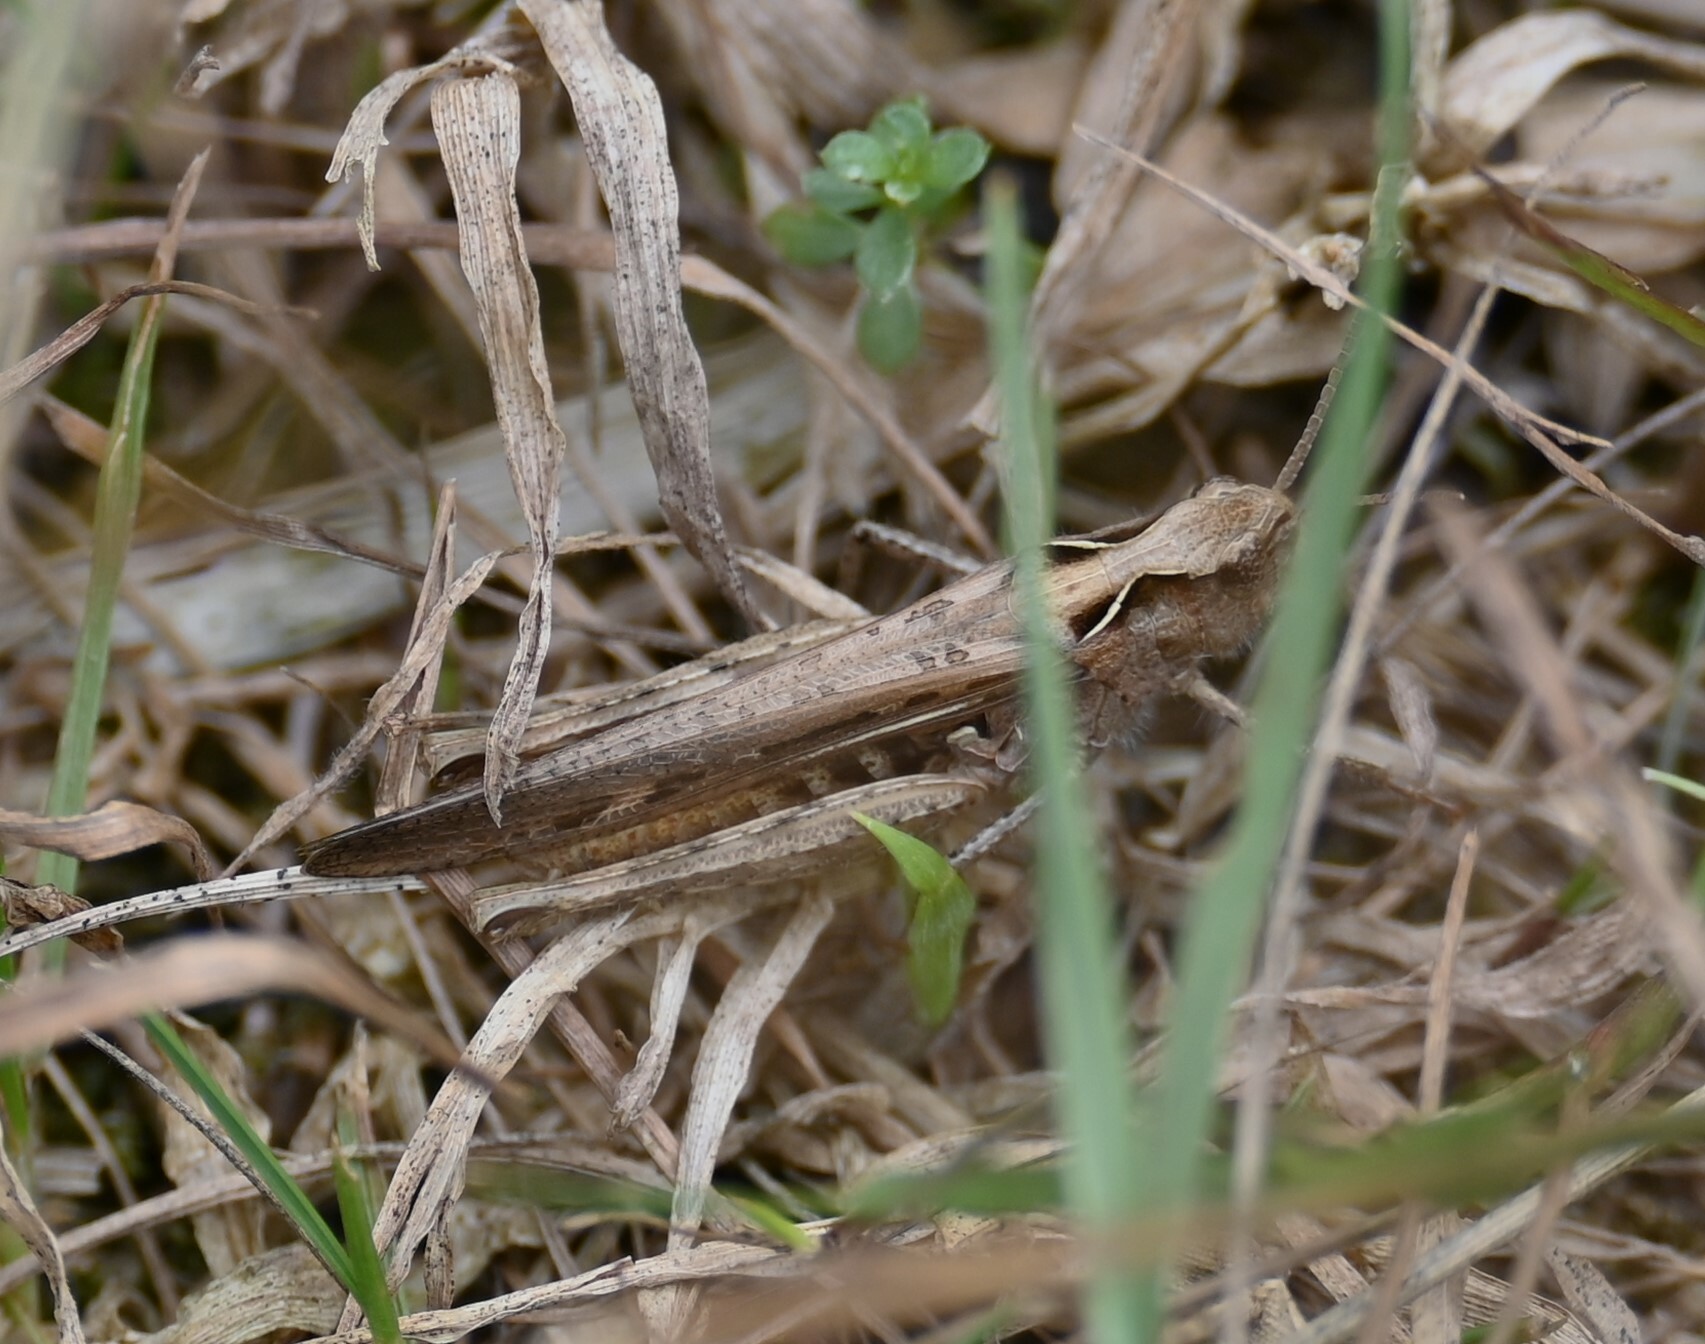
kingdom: Animalia
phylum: Arthropoda
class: Insecta
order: Orthoptera
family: Acrididae
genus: Chorthippus
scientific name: Chorthippus brunneus
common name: Field grasshopper
